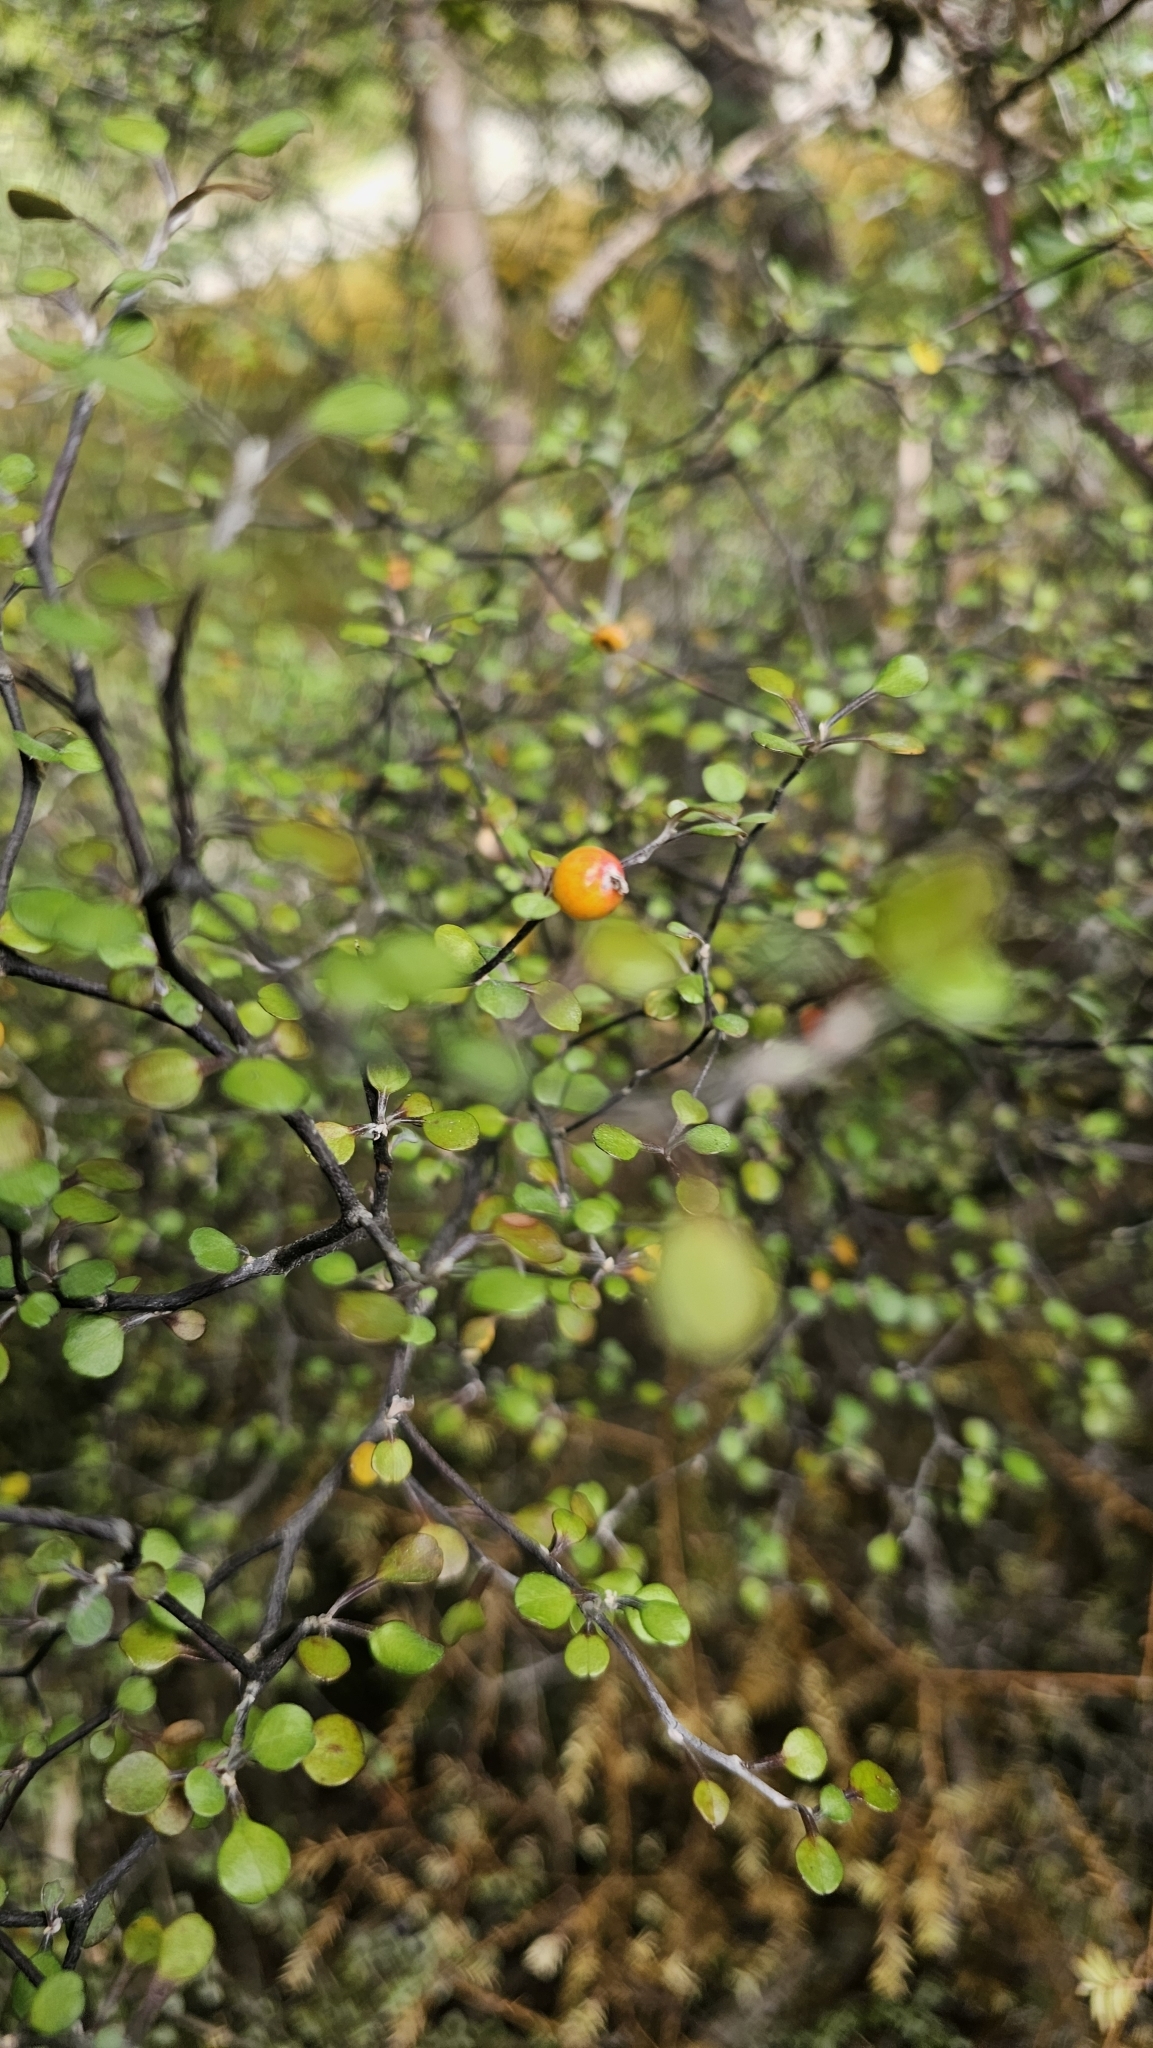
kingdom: Plantae
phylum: Tracheophyta
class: Magnoliopsida
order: Asterales
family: Argophyllaceae
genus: Corokia
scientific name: Corokia cotoneaster
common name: Wire nettingbush
